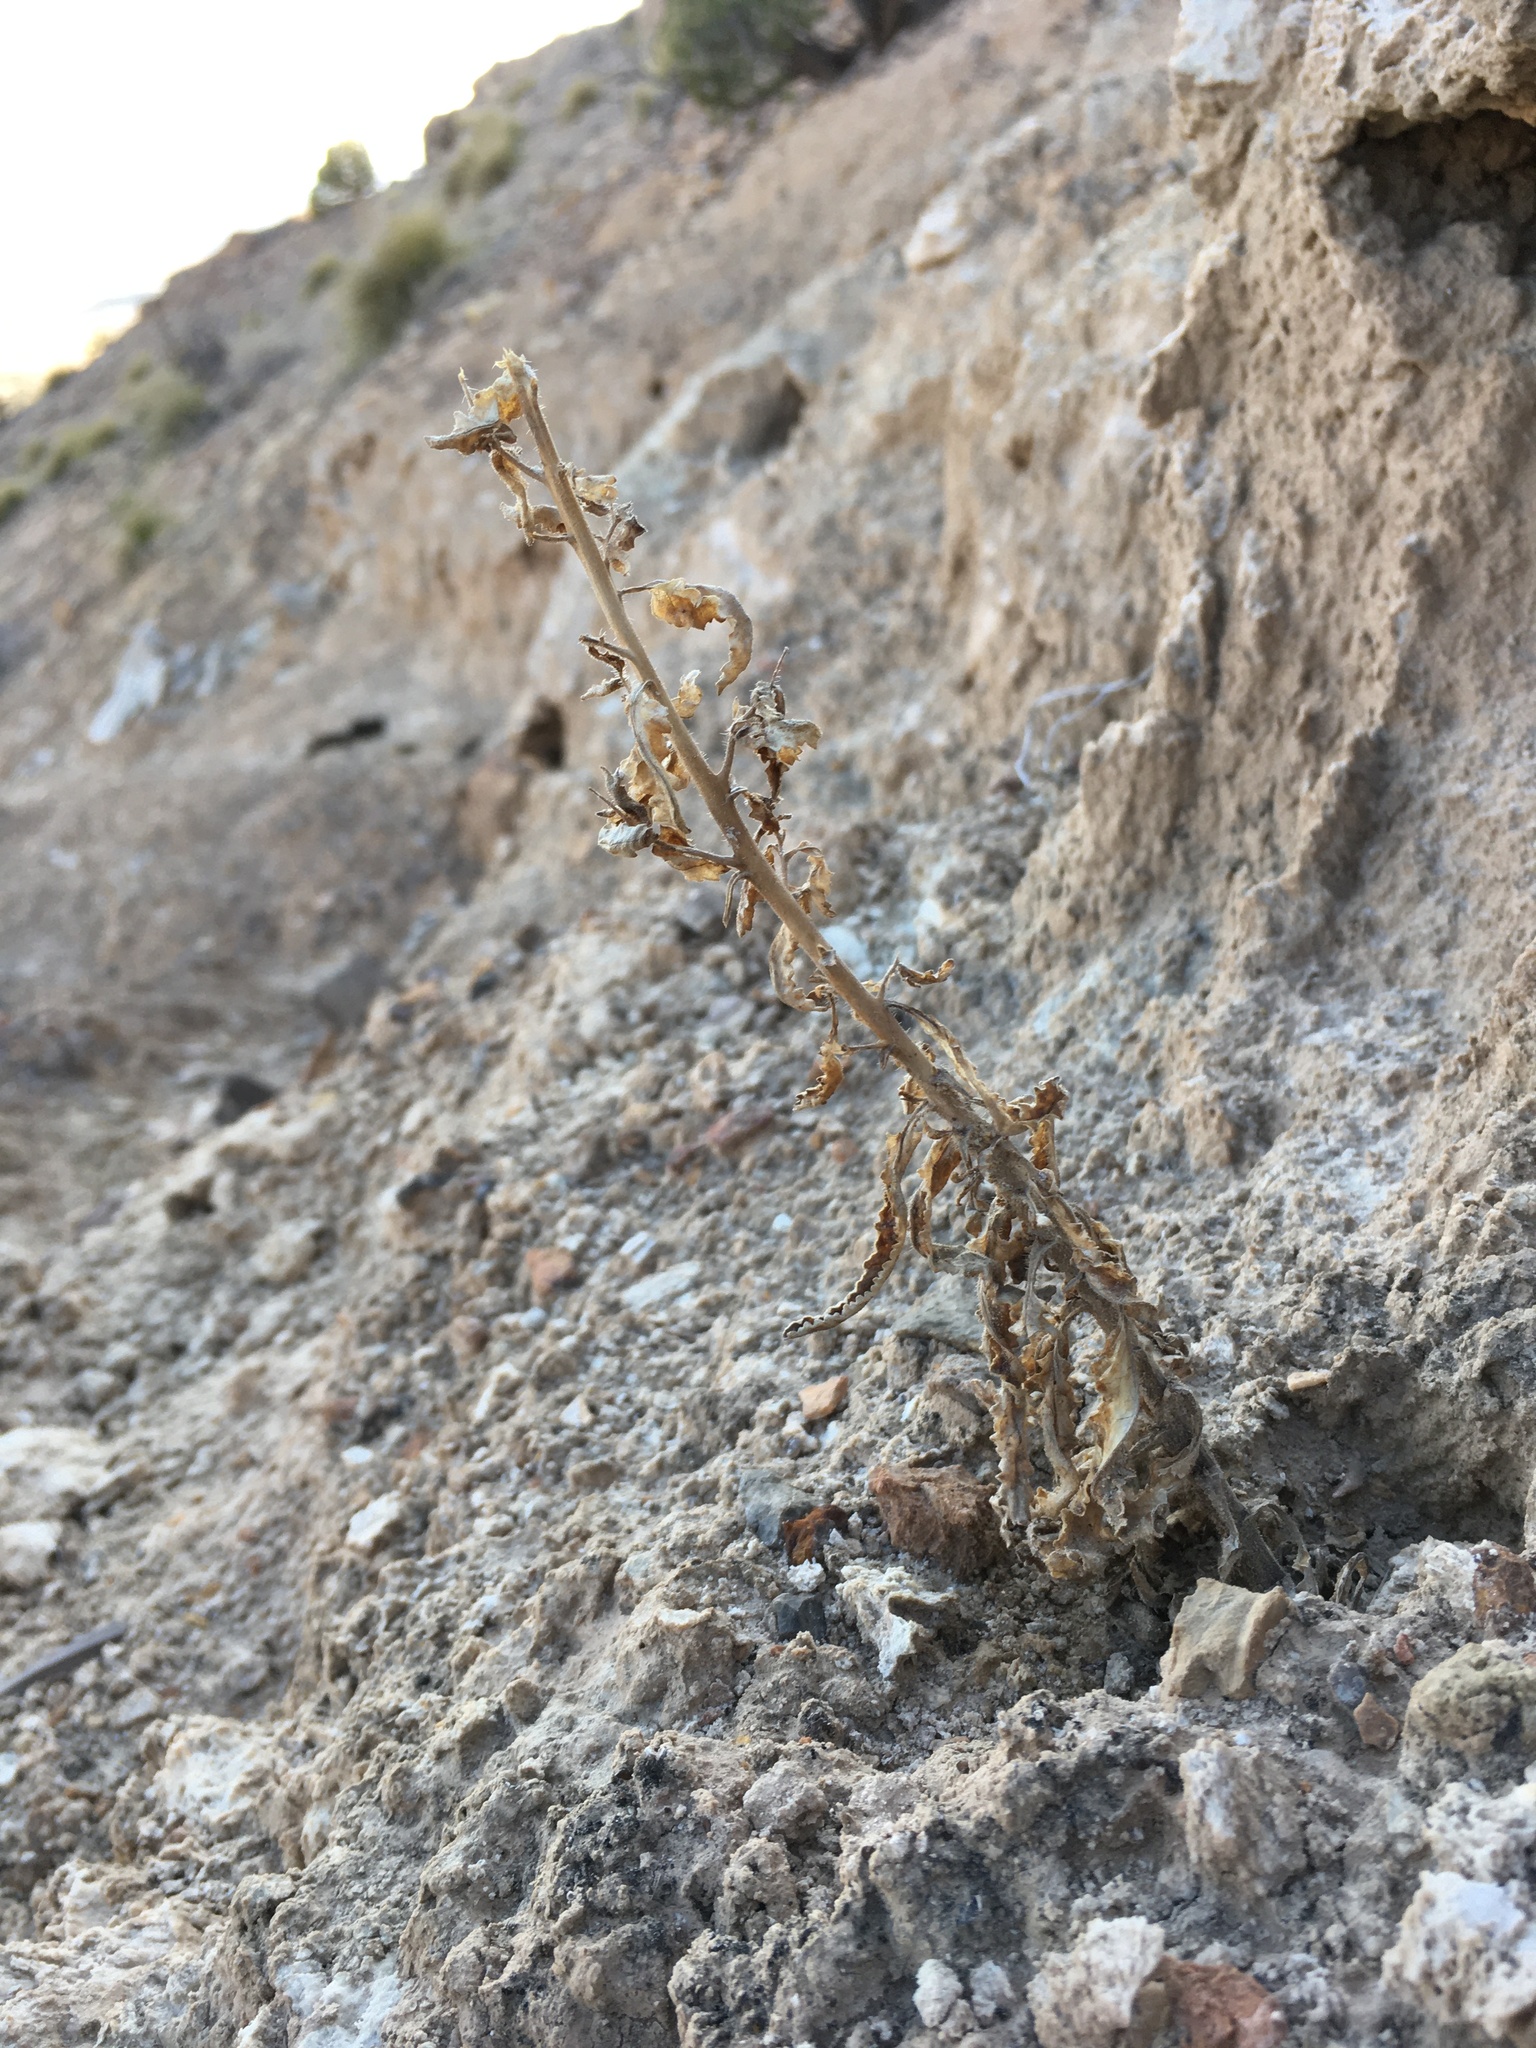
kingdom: Plantae
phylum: Tracheophyta
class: Magnoliopsida
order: Boraginales
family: Hydrophyllaceae
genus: Phacelia
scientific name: Phacelia sivinskii
